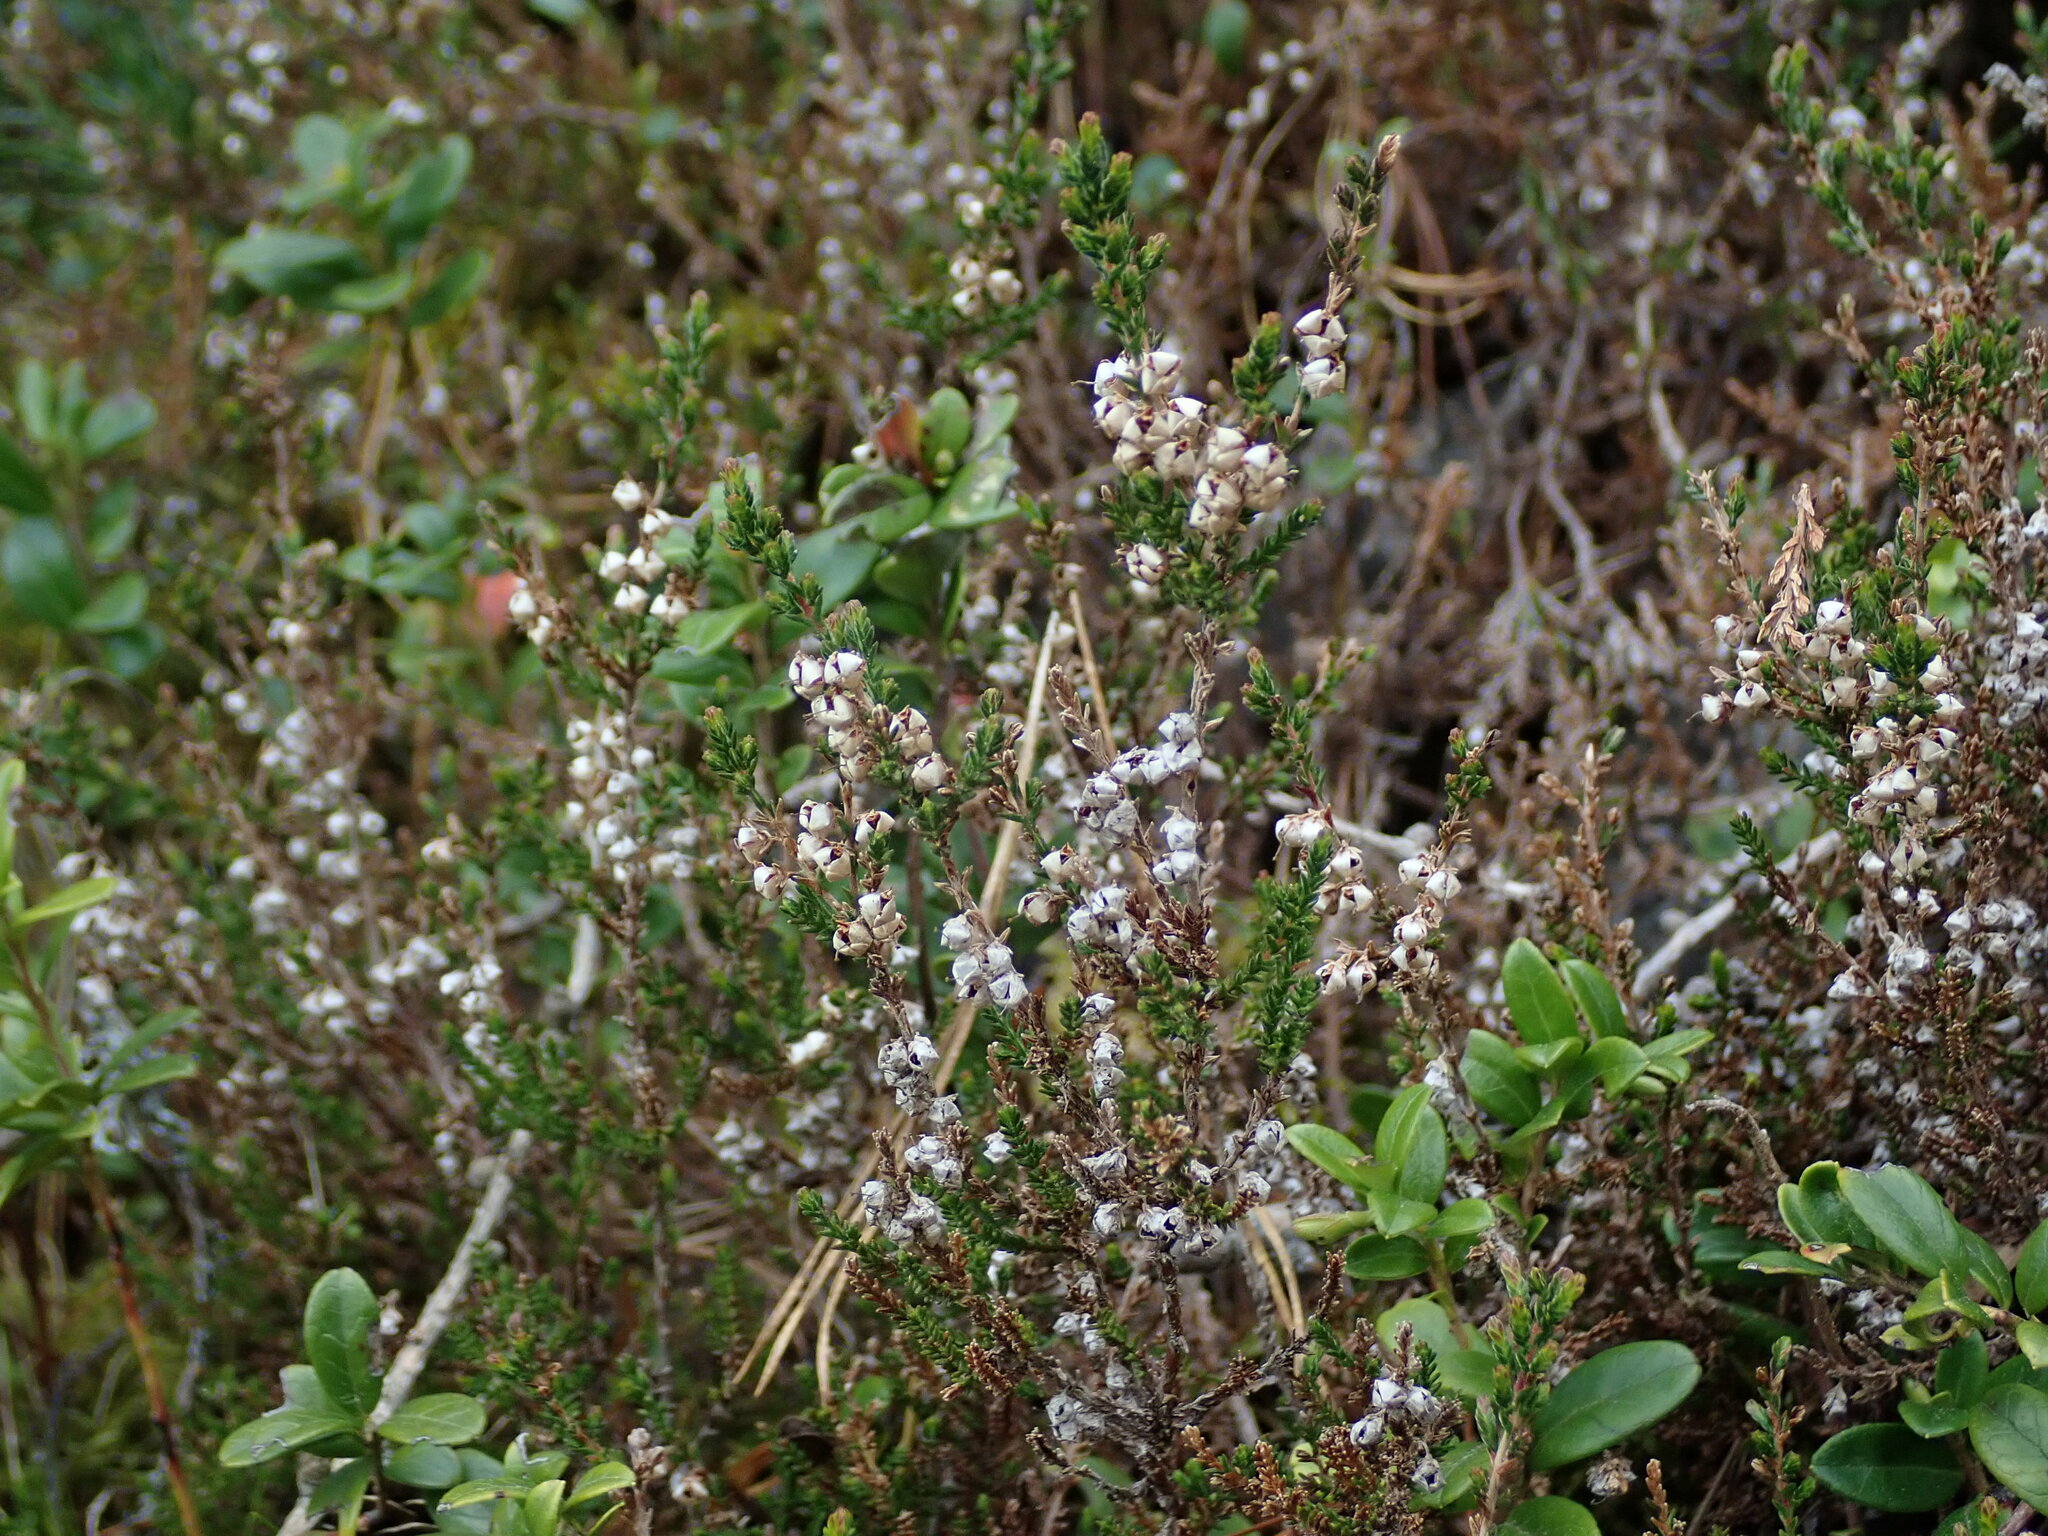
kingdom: Plantae
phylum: Tracheophyta
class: Magnoliopsida
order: Ericales
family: Ericaceae
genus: Calluna
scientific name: Calluna vulgaris
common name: Heather
